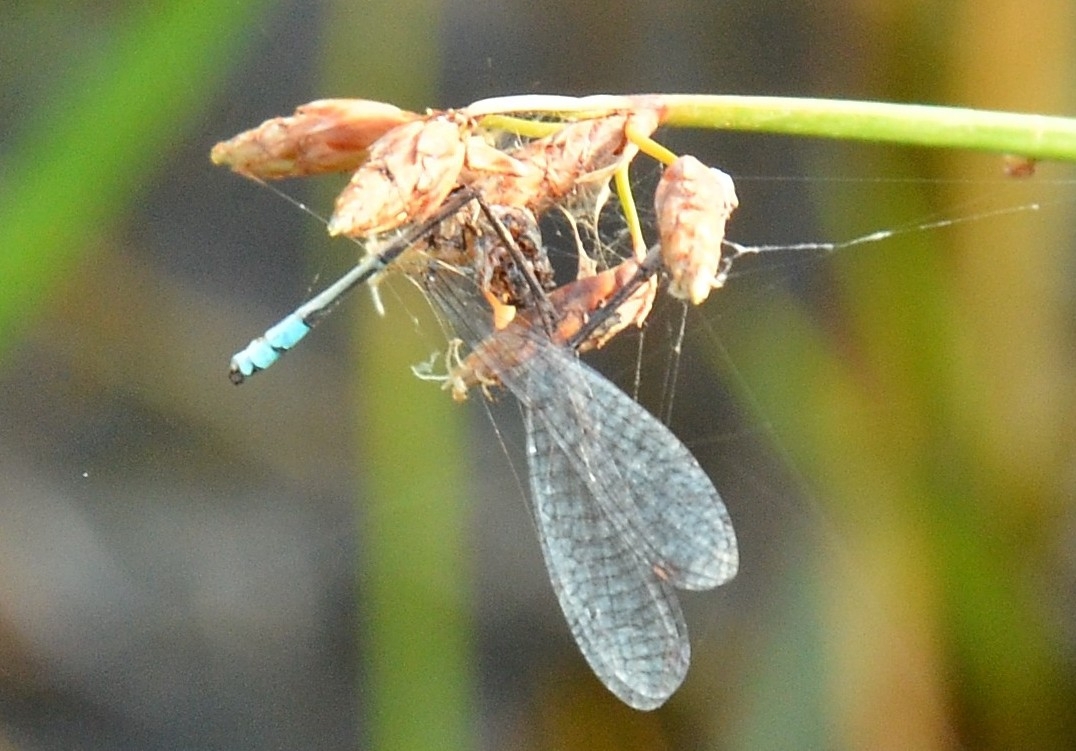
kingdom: Animalia
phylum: Arthropoda
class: Insecta
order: Odonata
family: Coenagrionidae
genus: Pseudagrion
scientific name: Pseudagrion microcephalum
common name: Blue riverdamsel
